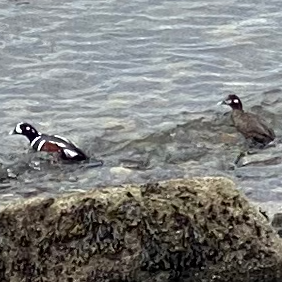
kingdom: Animalia
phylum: Chordata
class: Aves
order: Anseriformes
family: Anatidae
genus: Histrionicus
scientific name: Histrionicus histrionicus
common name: Harlequin duck
